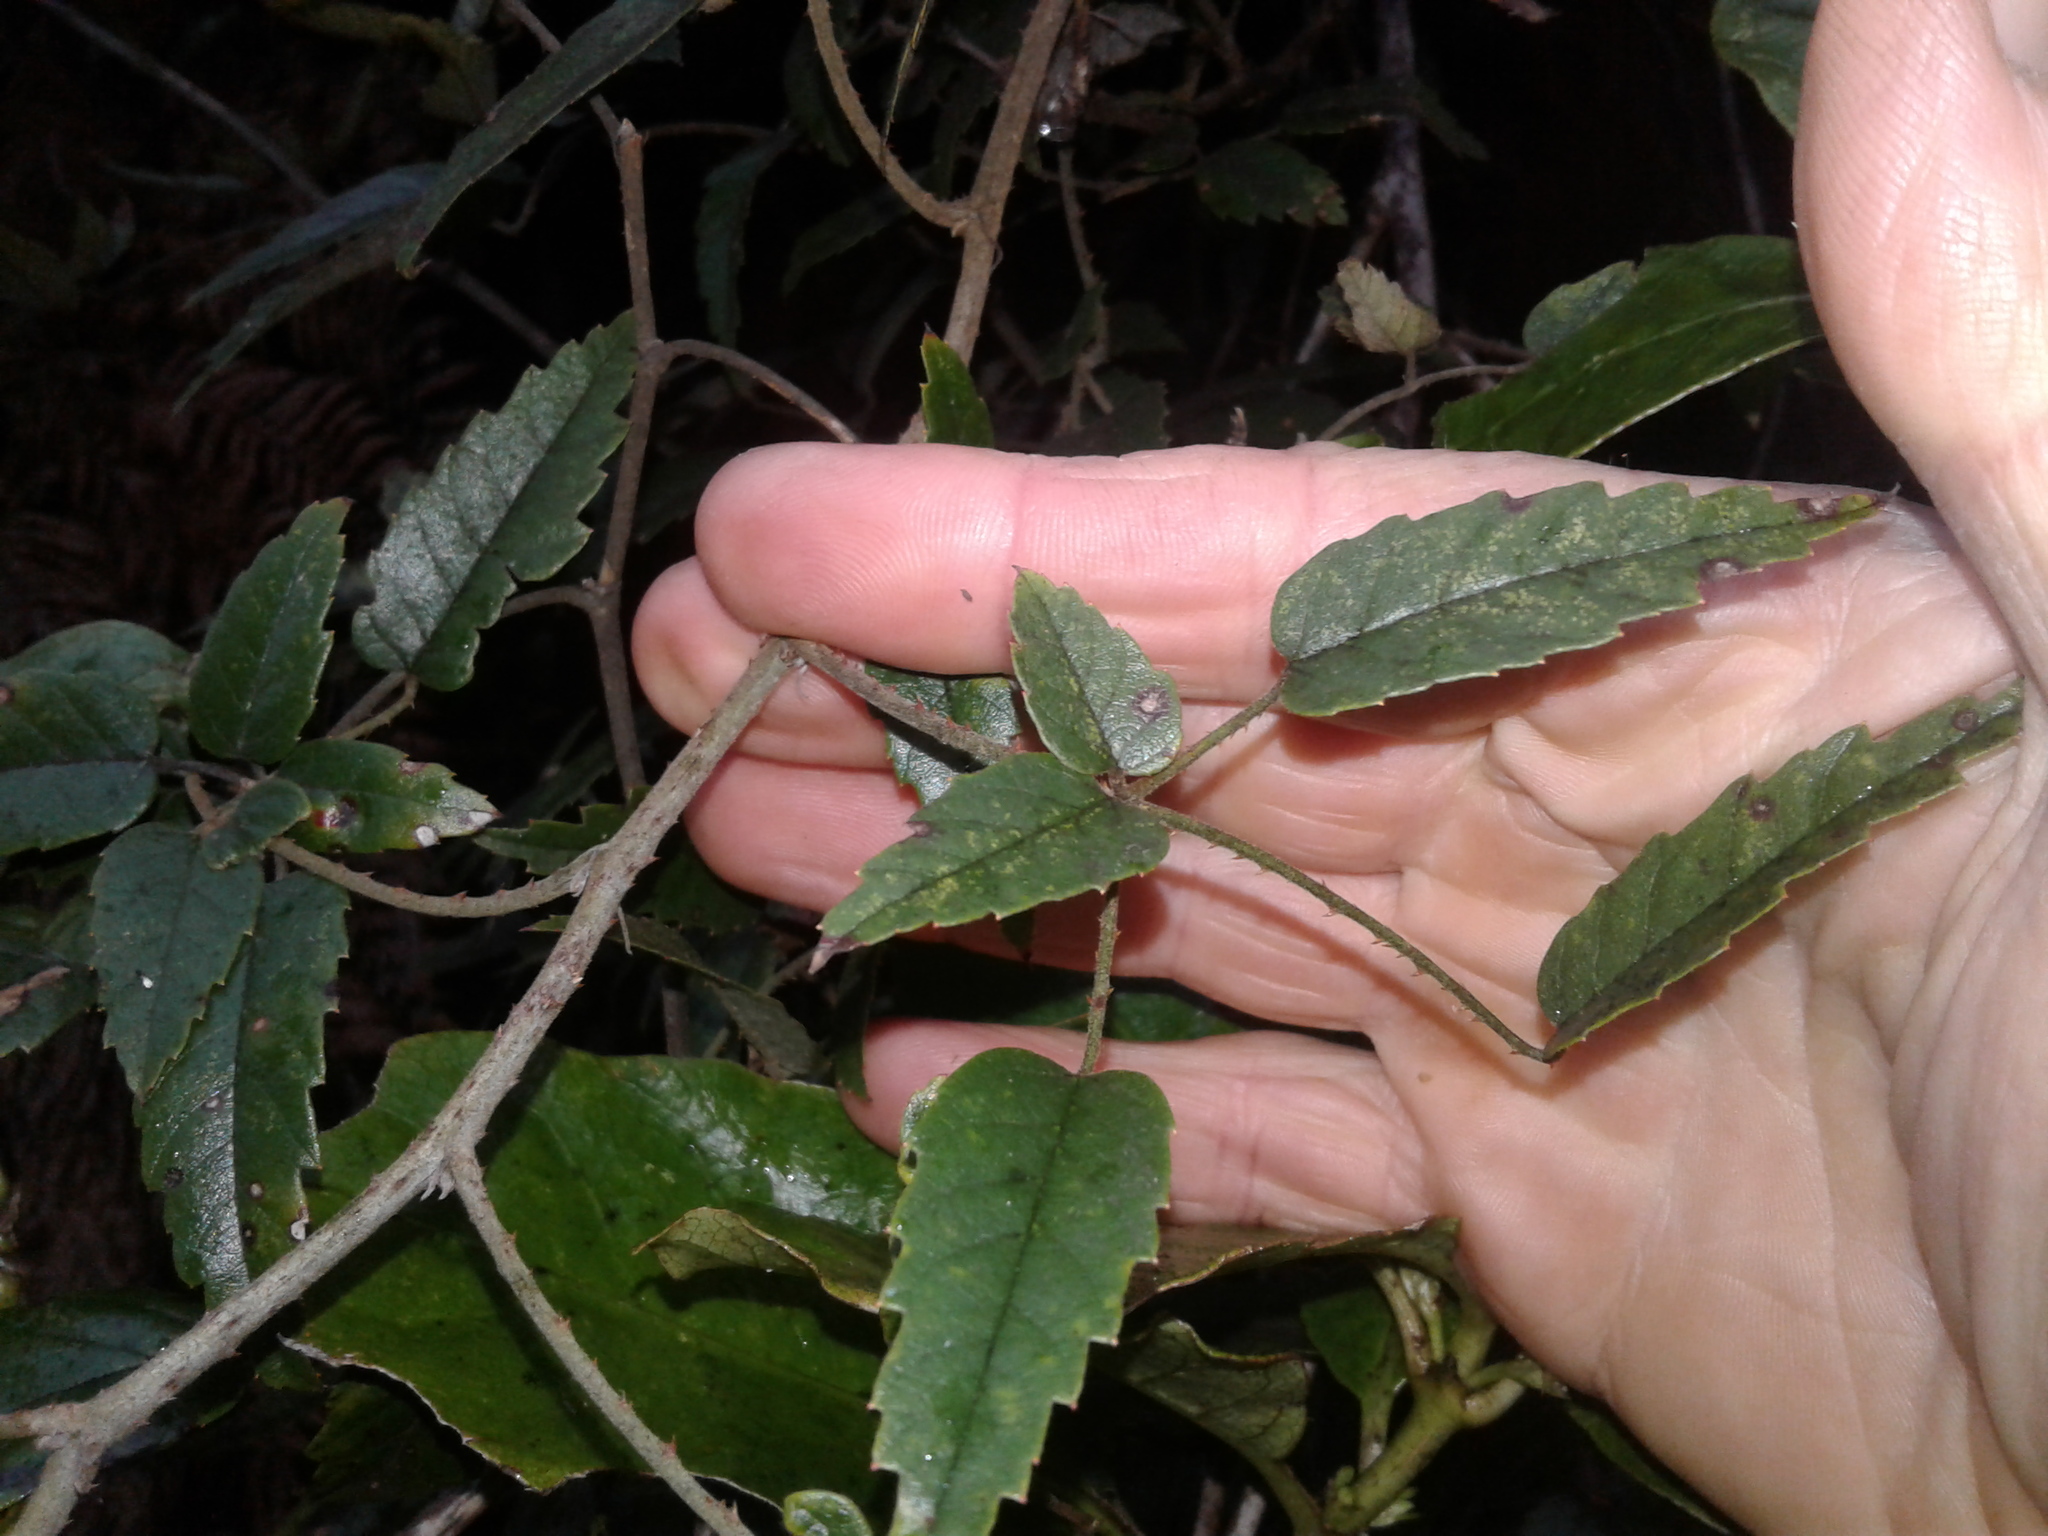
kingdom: Plantae
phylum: Tracheophyta
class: Magnoliopsida
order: Rosales
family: Rosaceae
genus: Rubus
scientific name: Rubus schmidelioides
